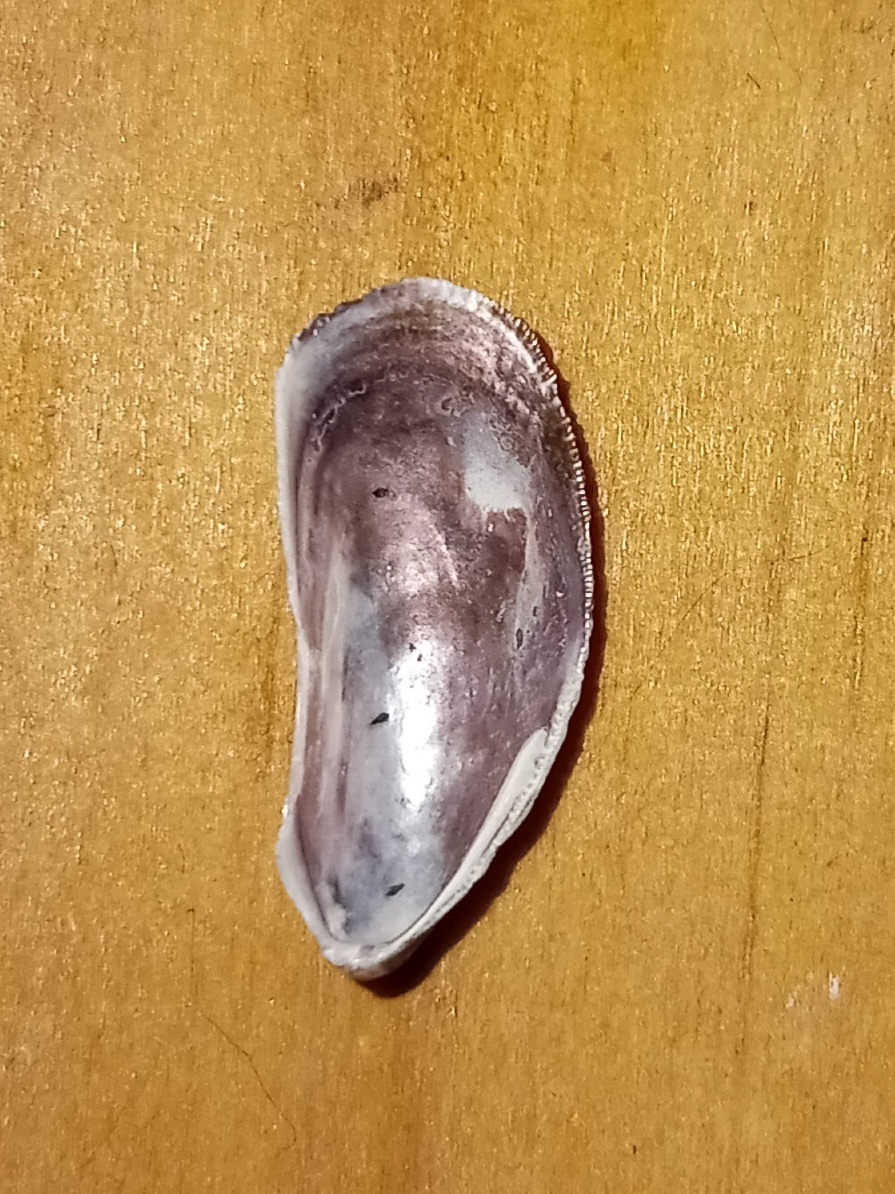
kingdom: Animalia
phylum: Mollusca
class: Bivalvia
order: Mytilida
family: Mytilidae
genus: Geukensia
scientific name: Geukensia demissa
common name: Ribbed mussel
